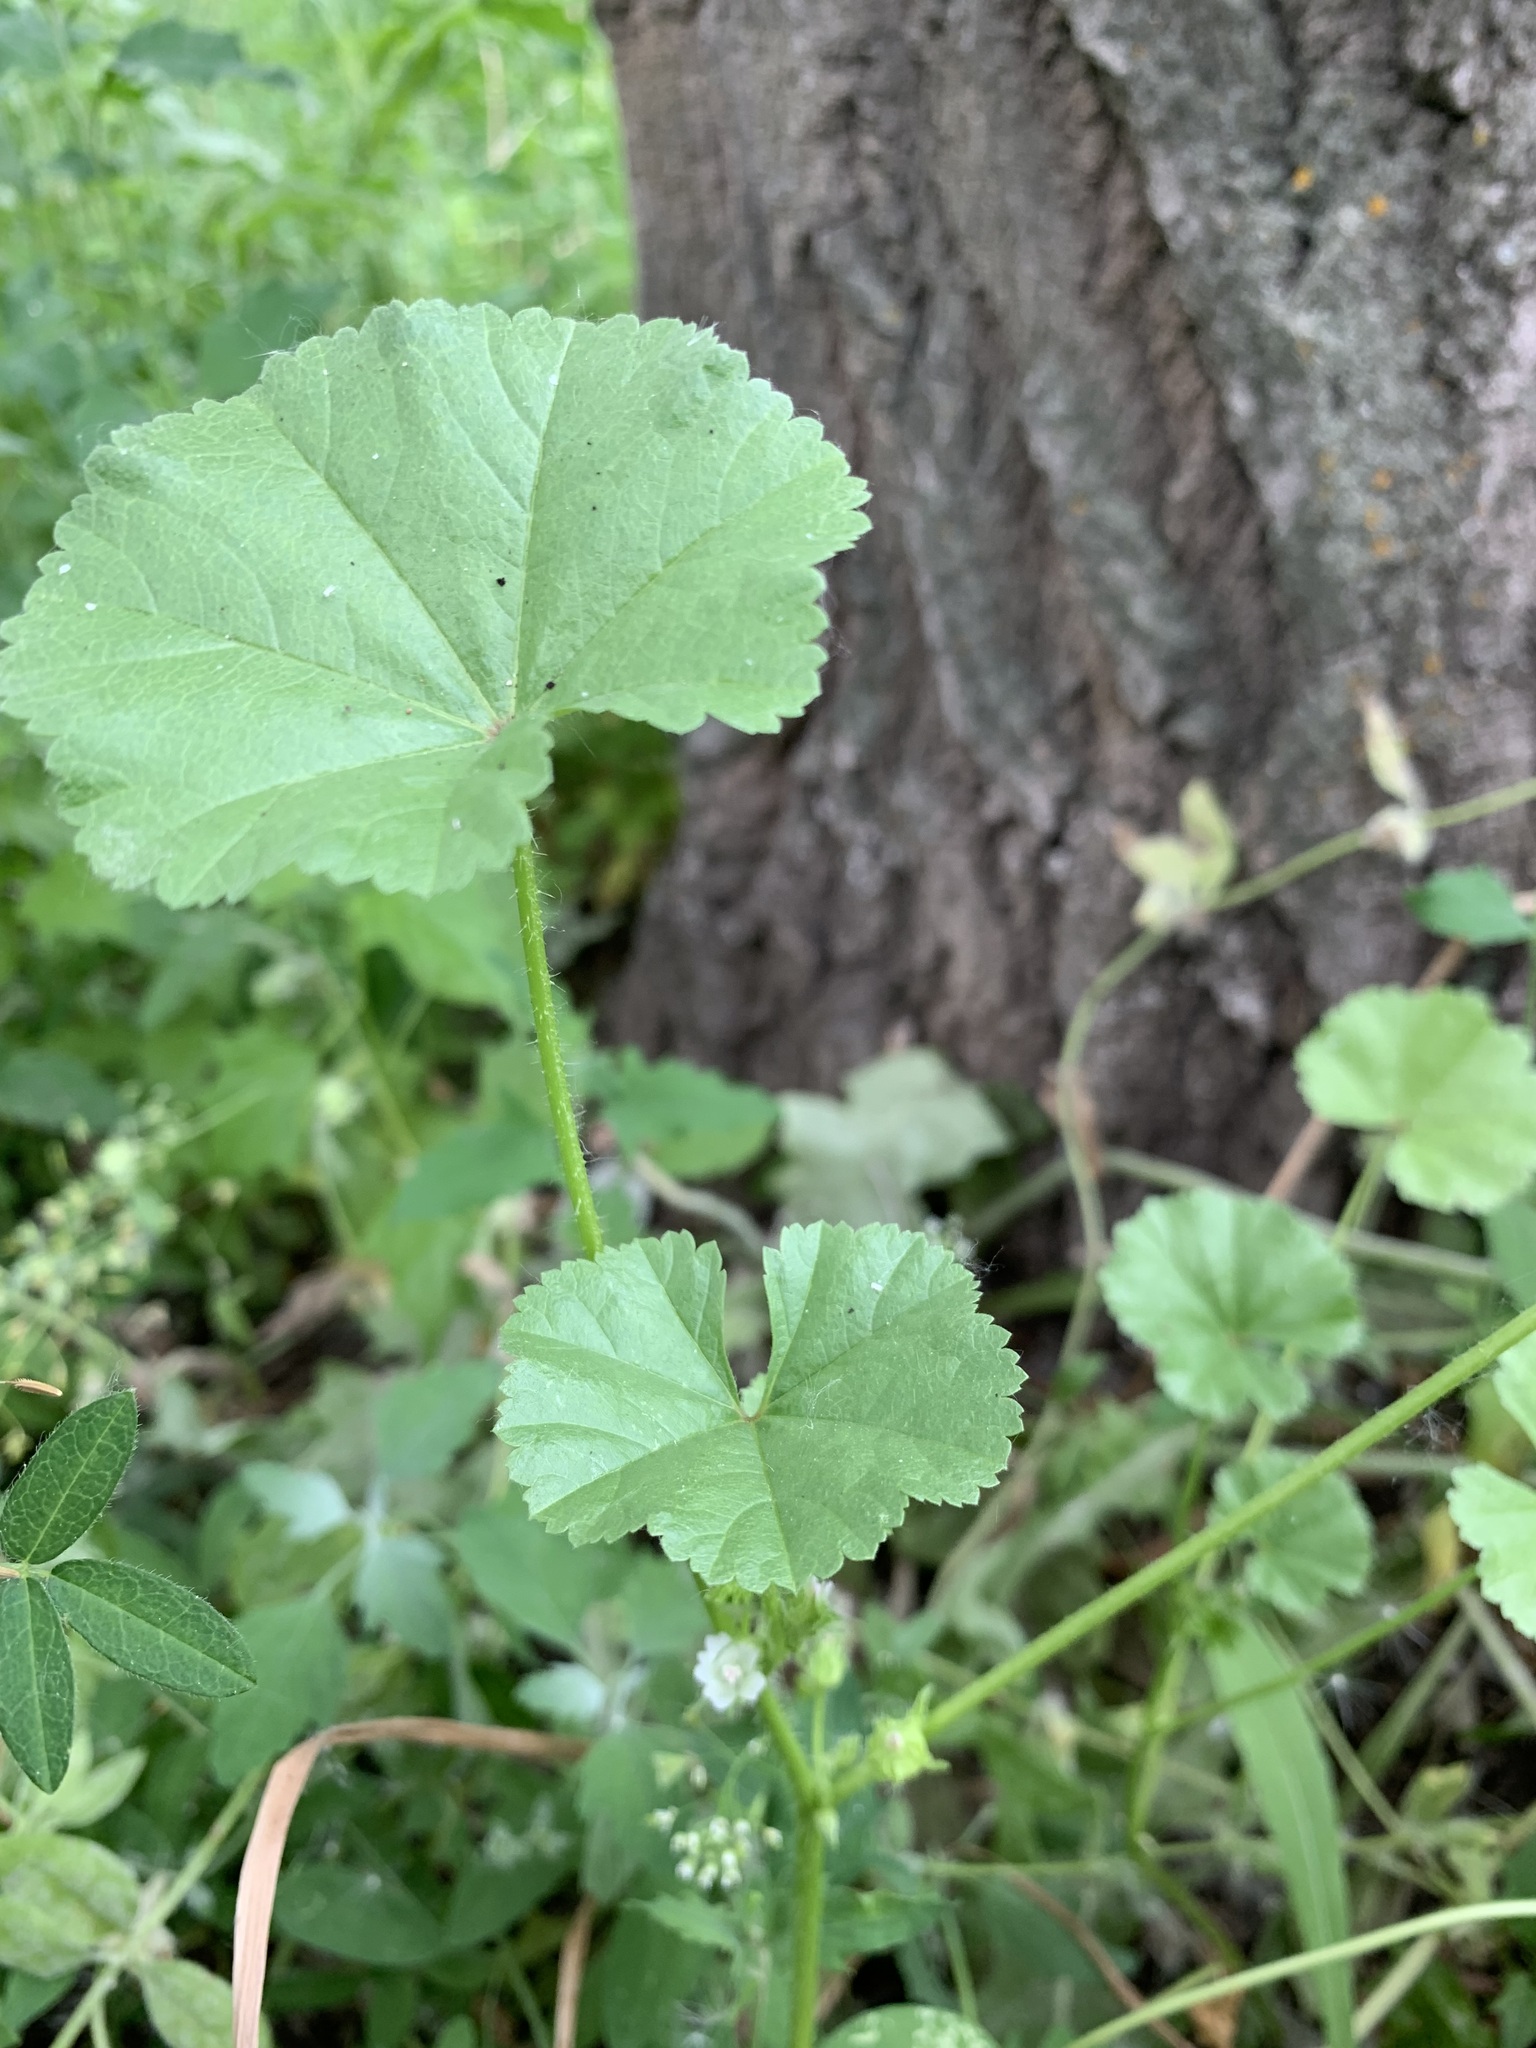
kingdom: Plantae
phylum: Tracheophyta
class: Magnoliopsida
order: Malvales
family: Malvaceae
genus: Malva
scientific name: Malva pusilla
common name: Small mallow
